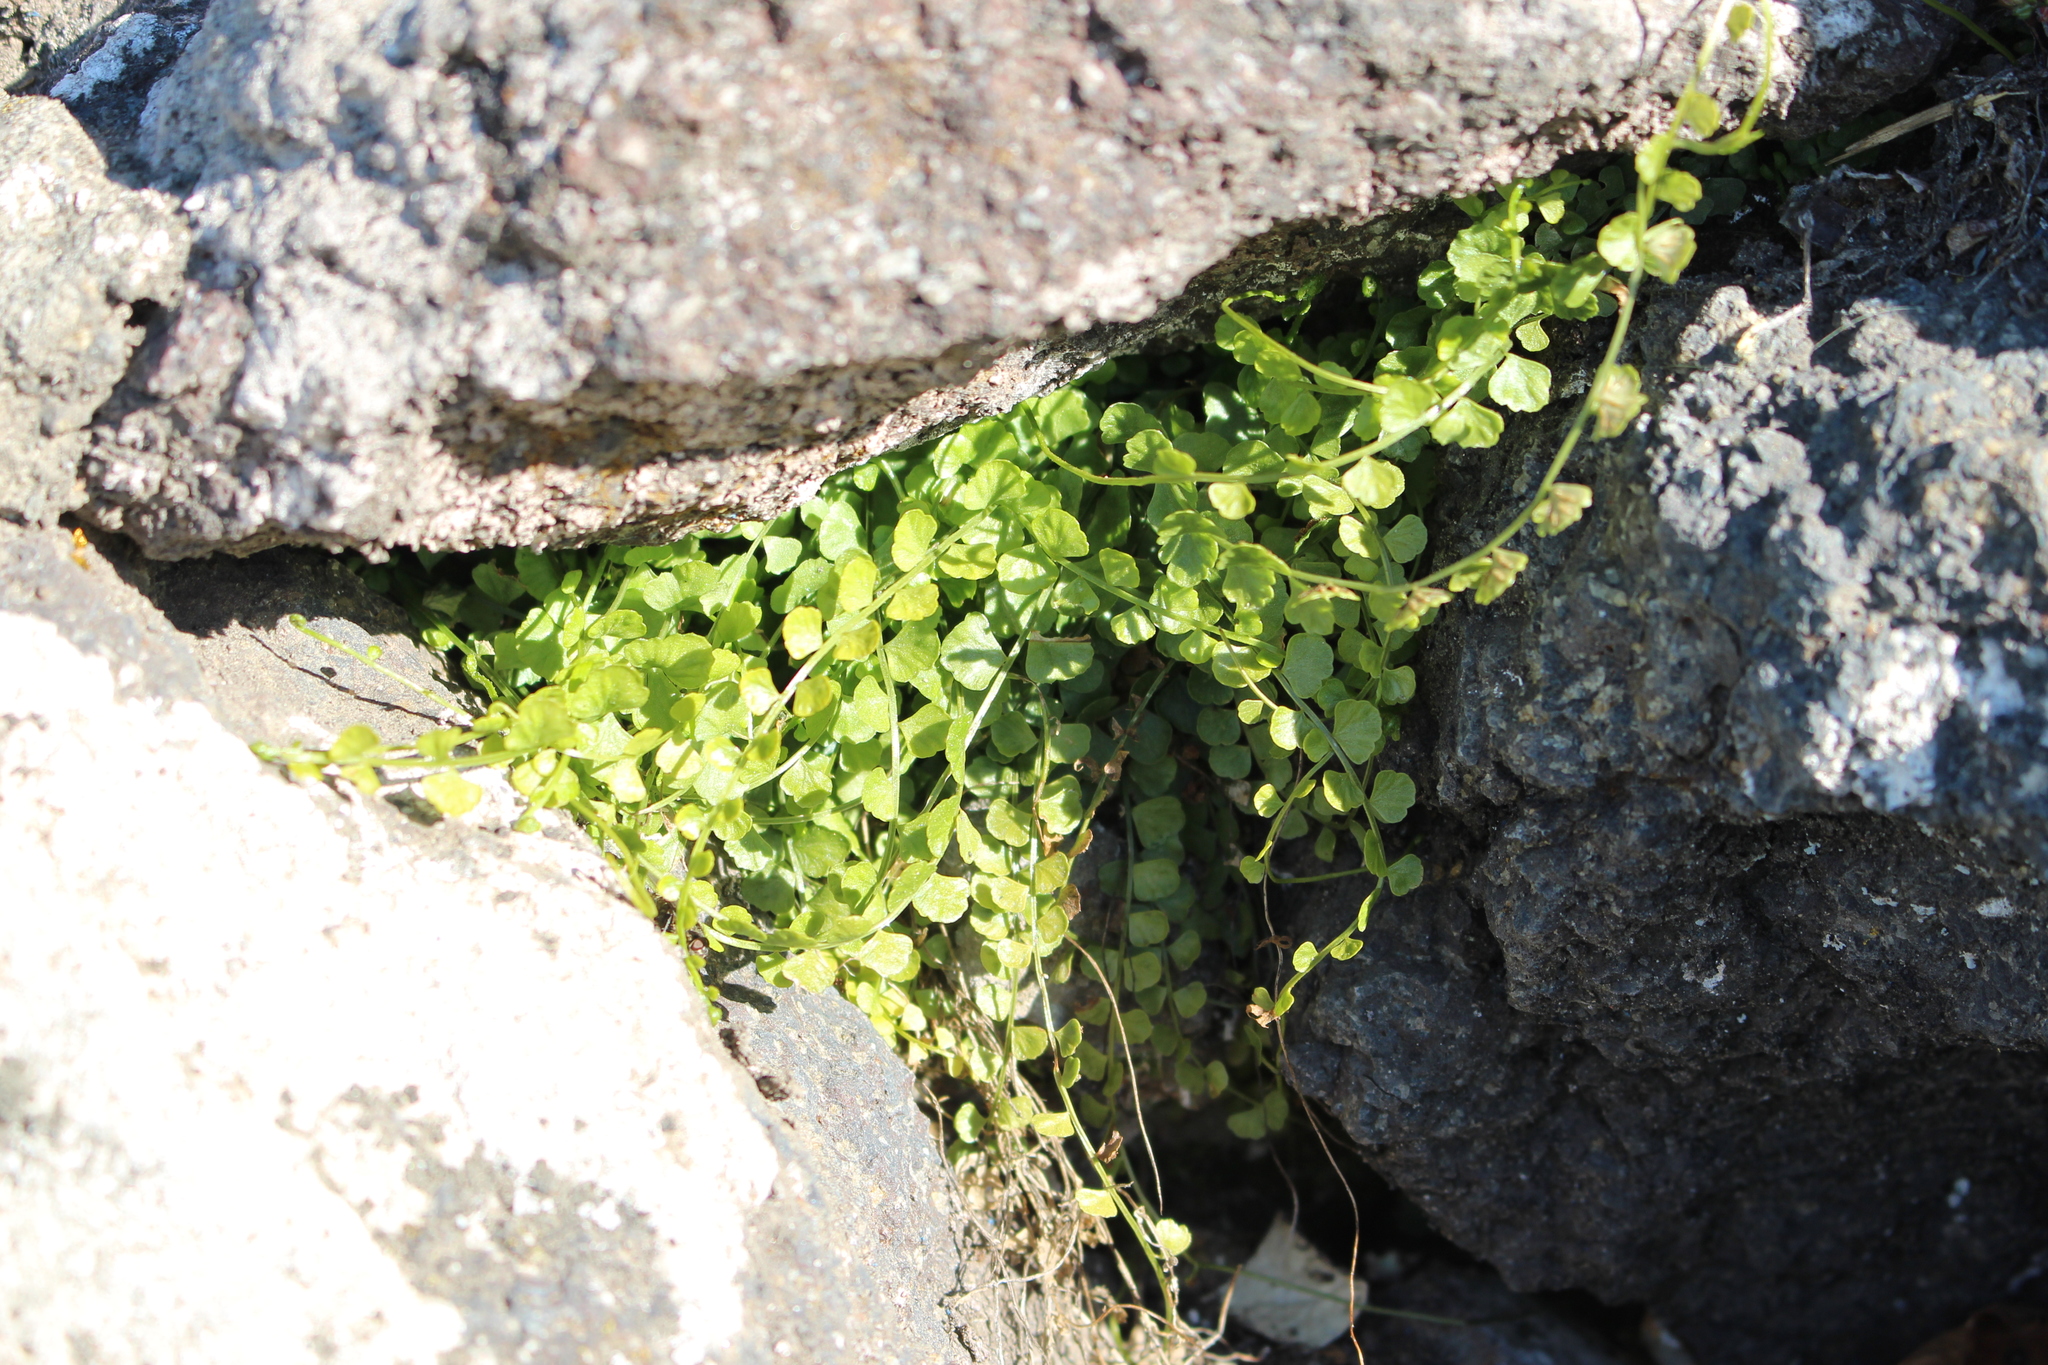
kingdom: Plantae
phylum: Tracheophyta
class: Polypodiopsida
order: Polypodiales
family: Aspleniaceae
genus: Asplenium
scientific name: Asplenium flabellifolium
